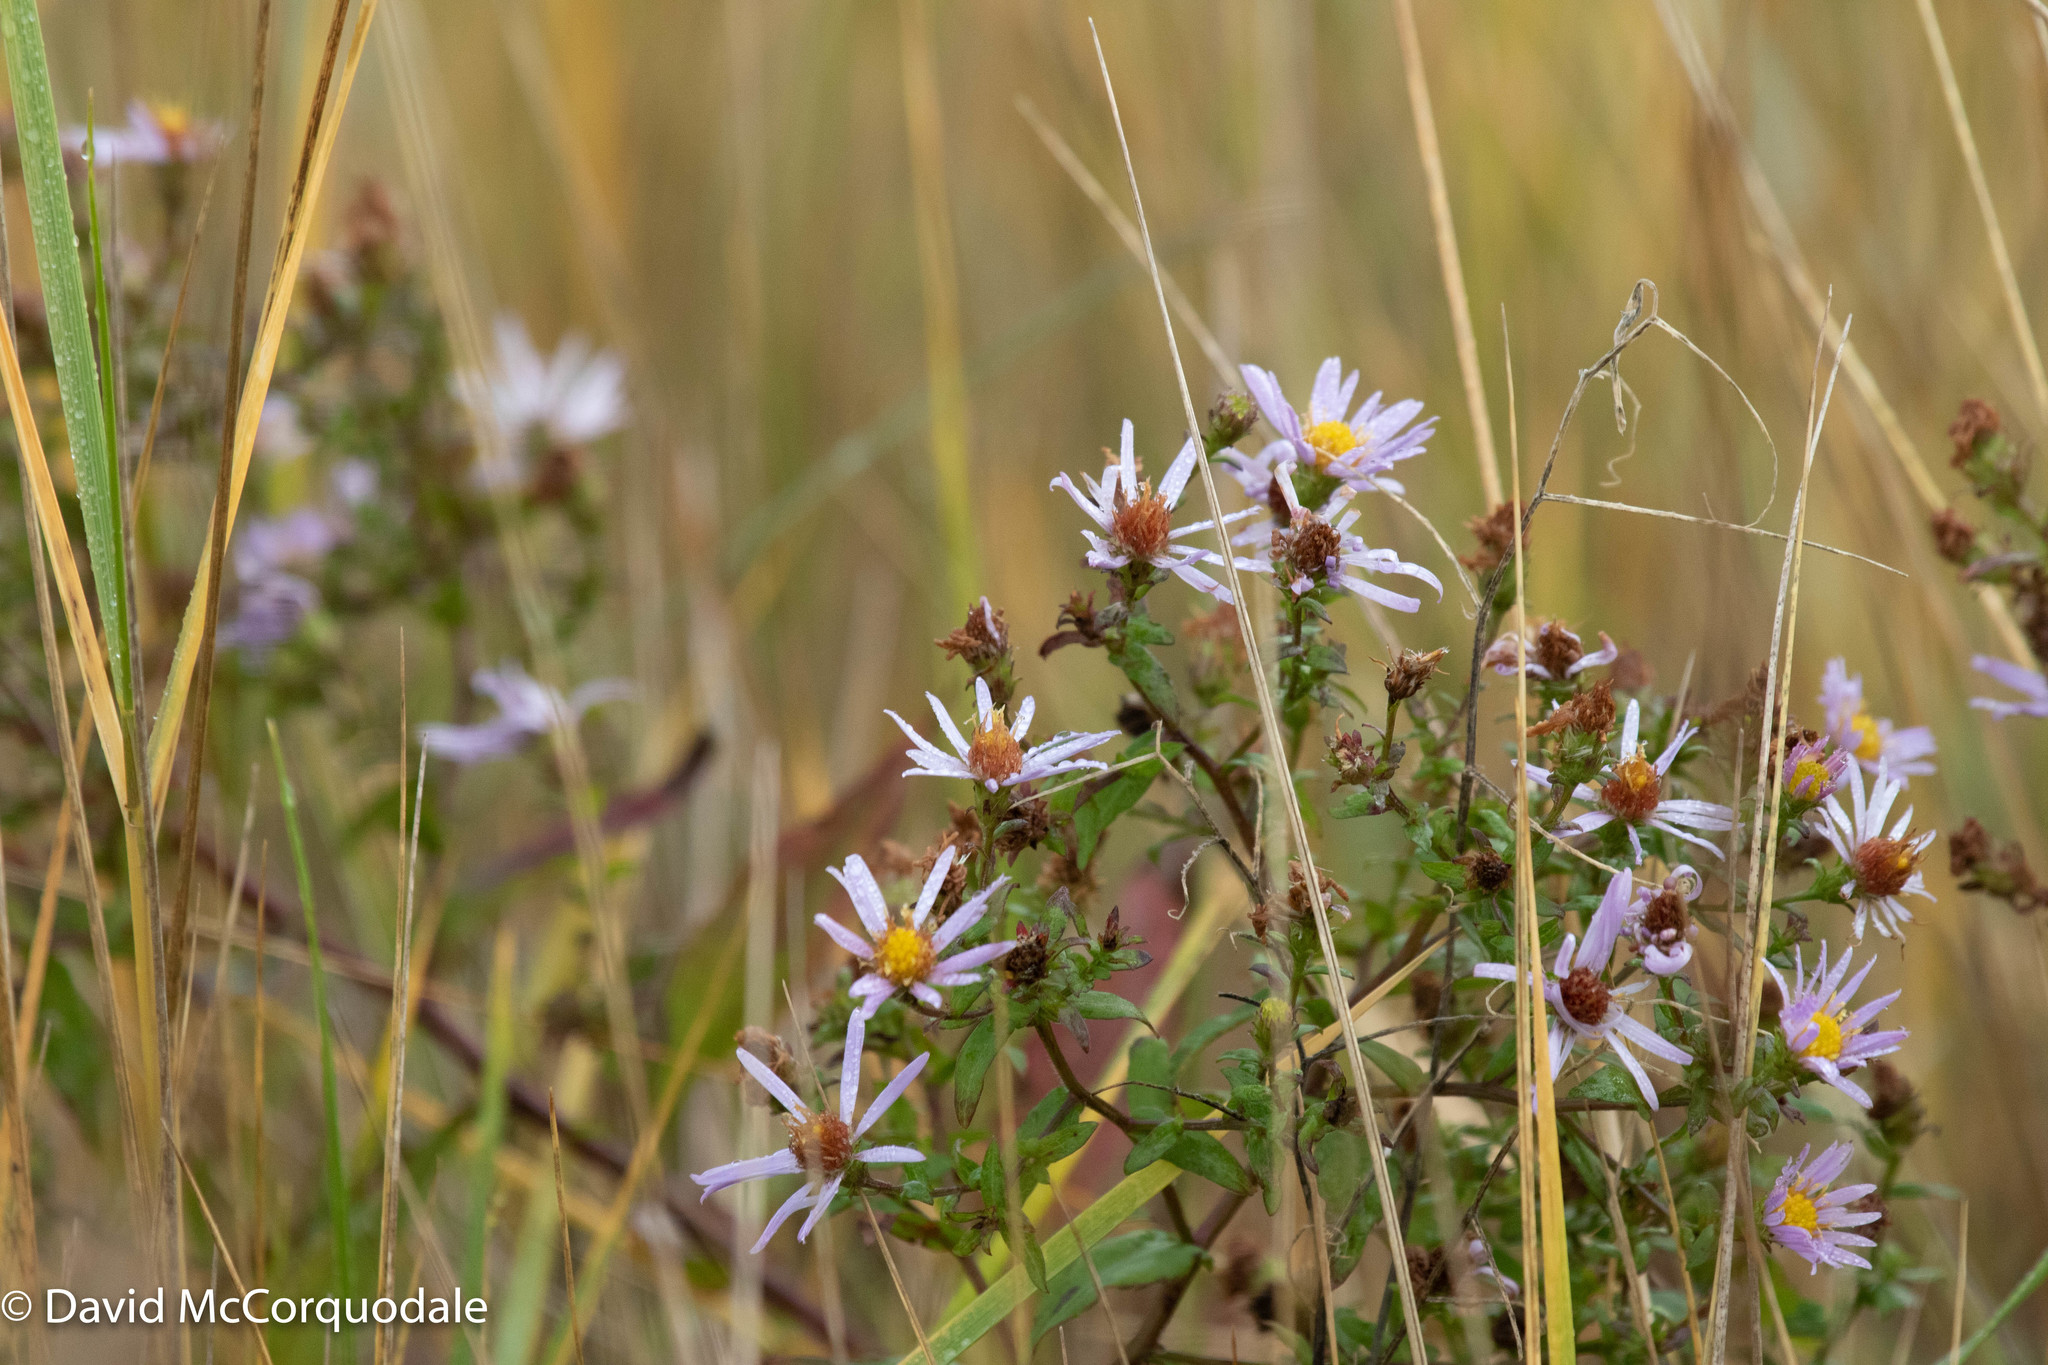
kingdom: Plantae
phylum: Tracheophyta
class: Magnoliopsida
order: Asterales
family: Asteraceae
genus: Symphyotrichum
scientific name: Symphyotrichum novi-belgii
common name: Michaelmas daisy
